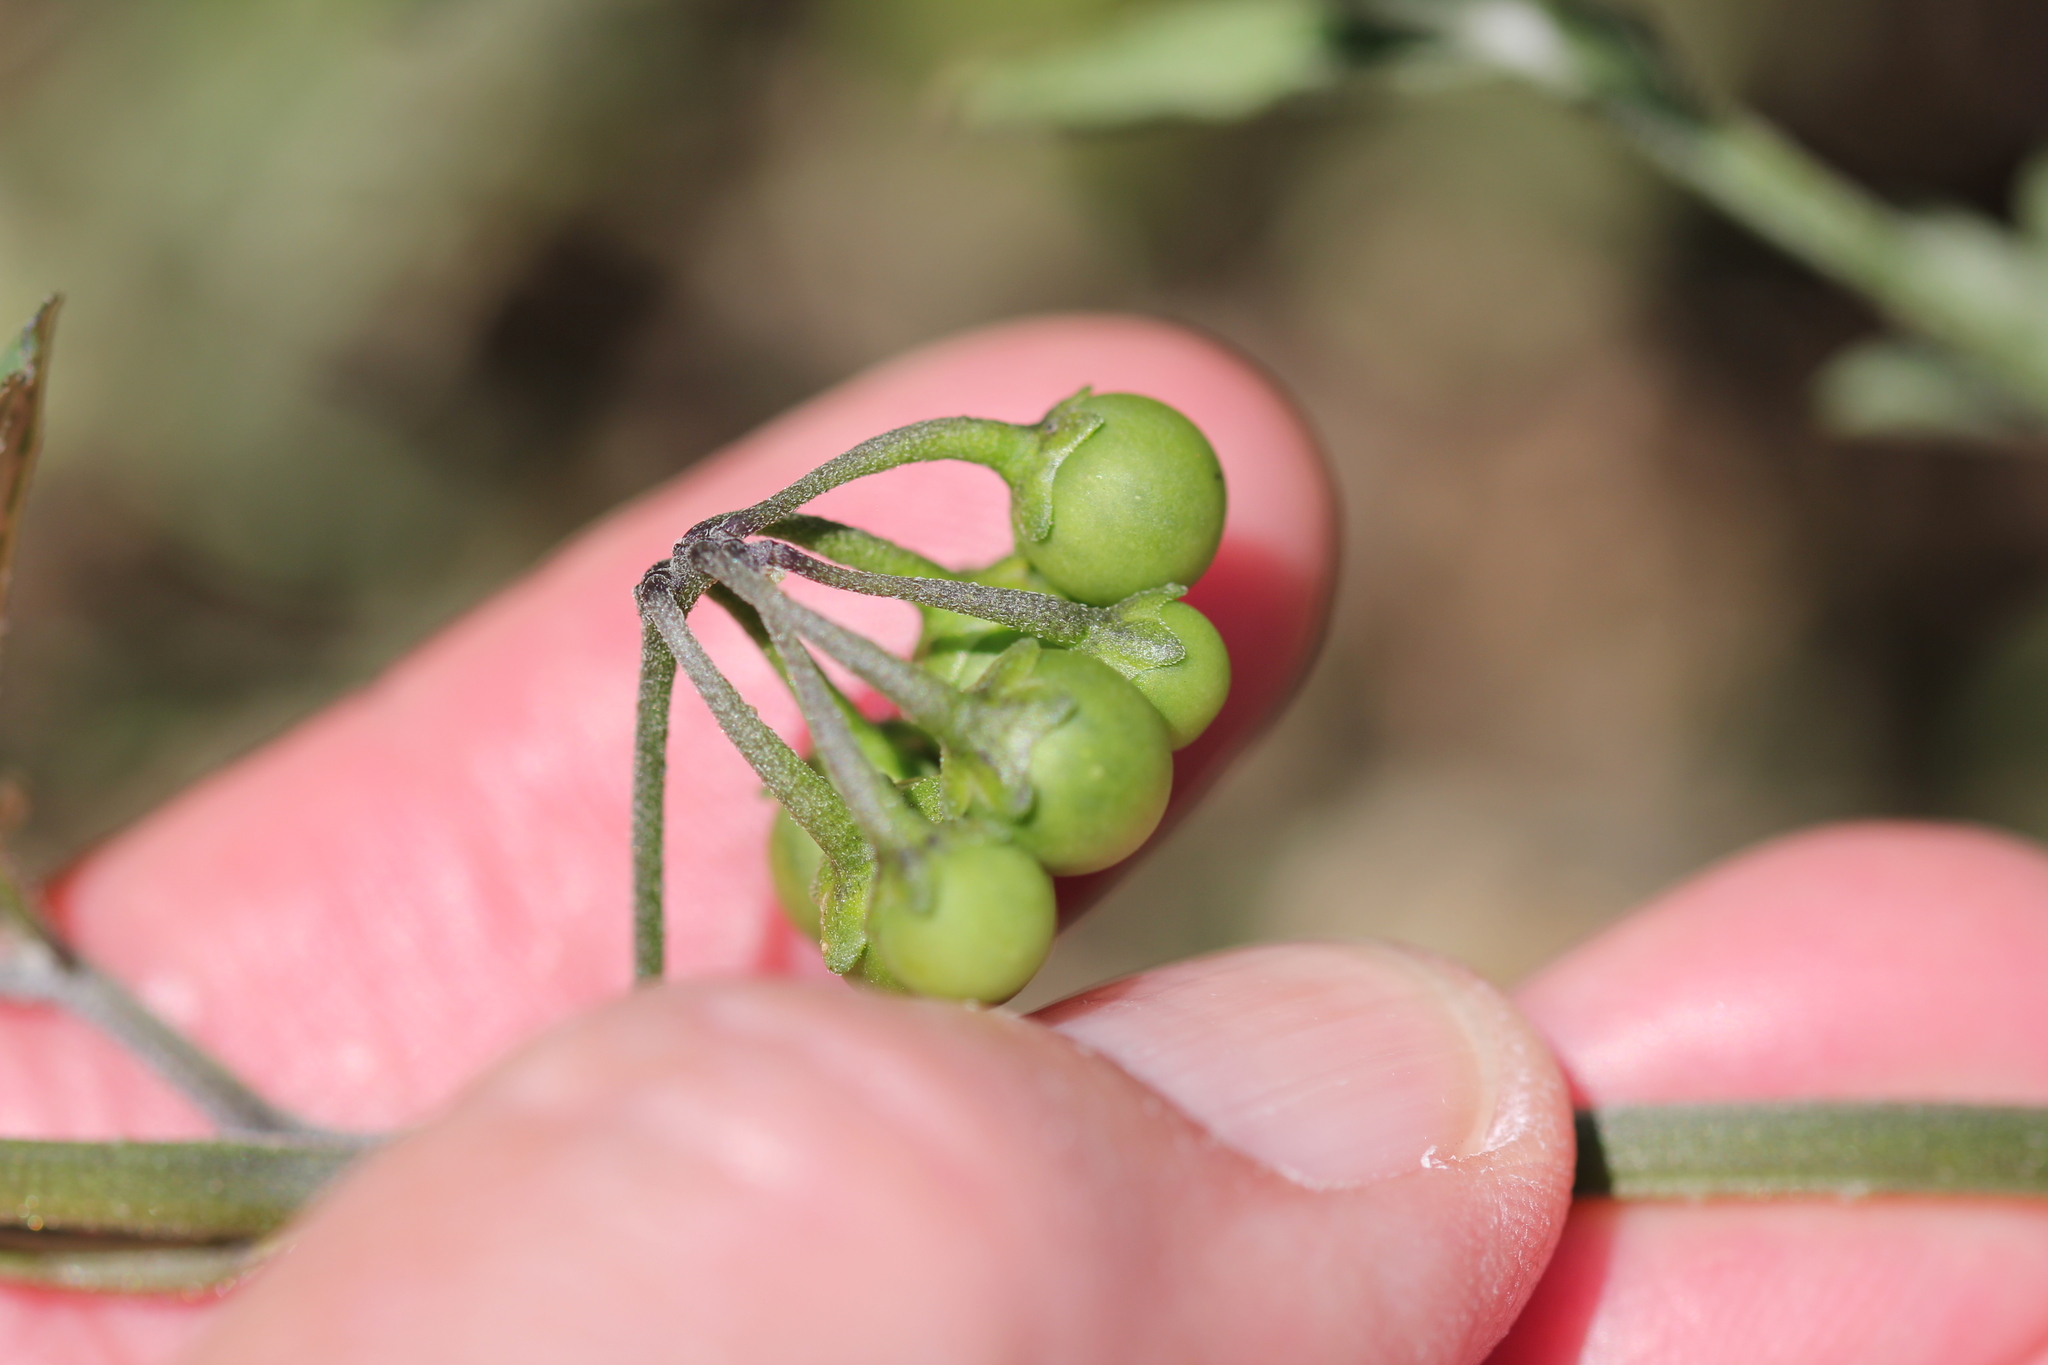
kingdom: Plantae
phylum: Tracheophyta
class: Magnoliopsida
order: Solanales
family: Solanaceae
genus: Solanum
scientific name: Solanum nigrum
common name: Black nightshade
